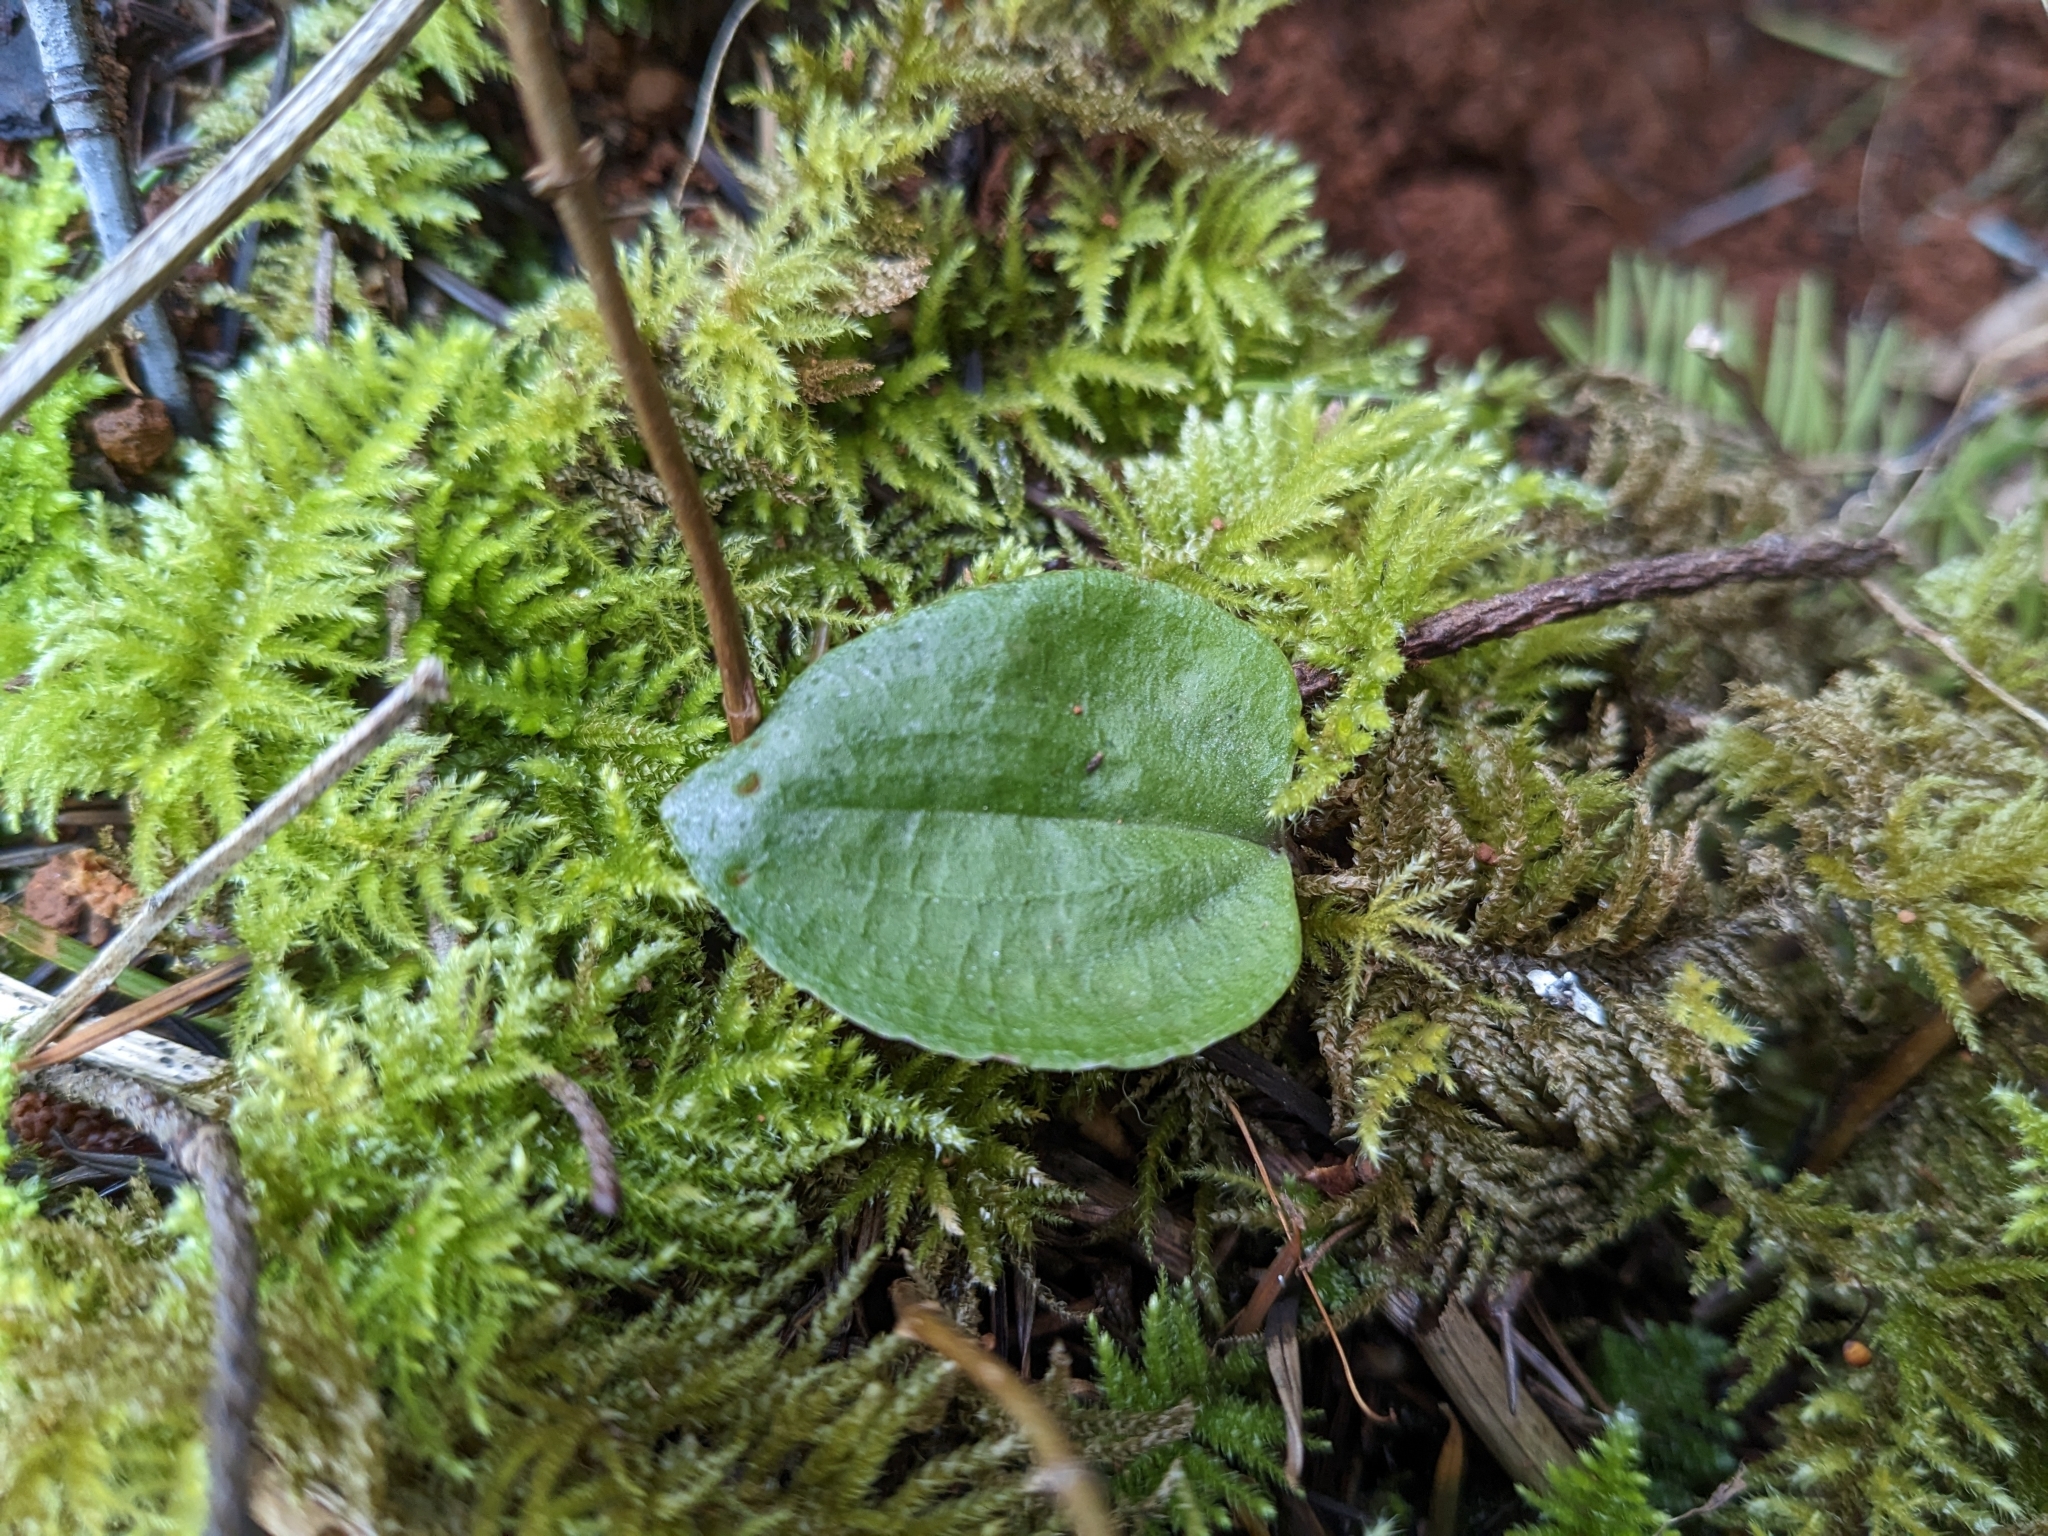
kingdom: Plantae
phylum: Tracheophyta
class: Liliopsida
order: Asparagales
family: Orchidaceae
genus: Calypso
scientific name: Calypso bulbosa
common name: Calypso
